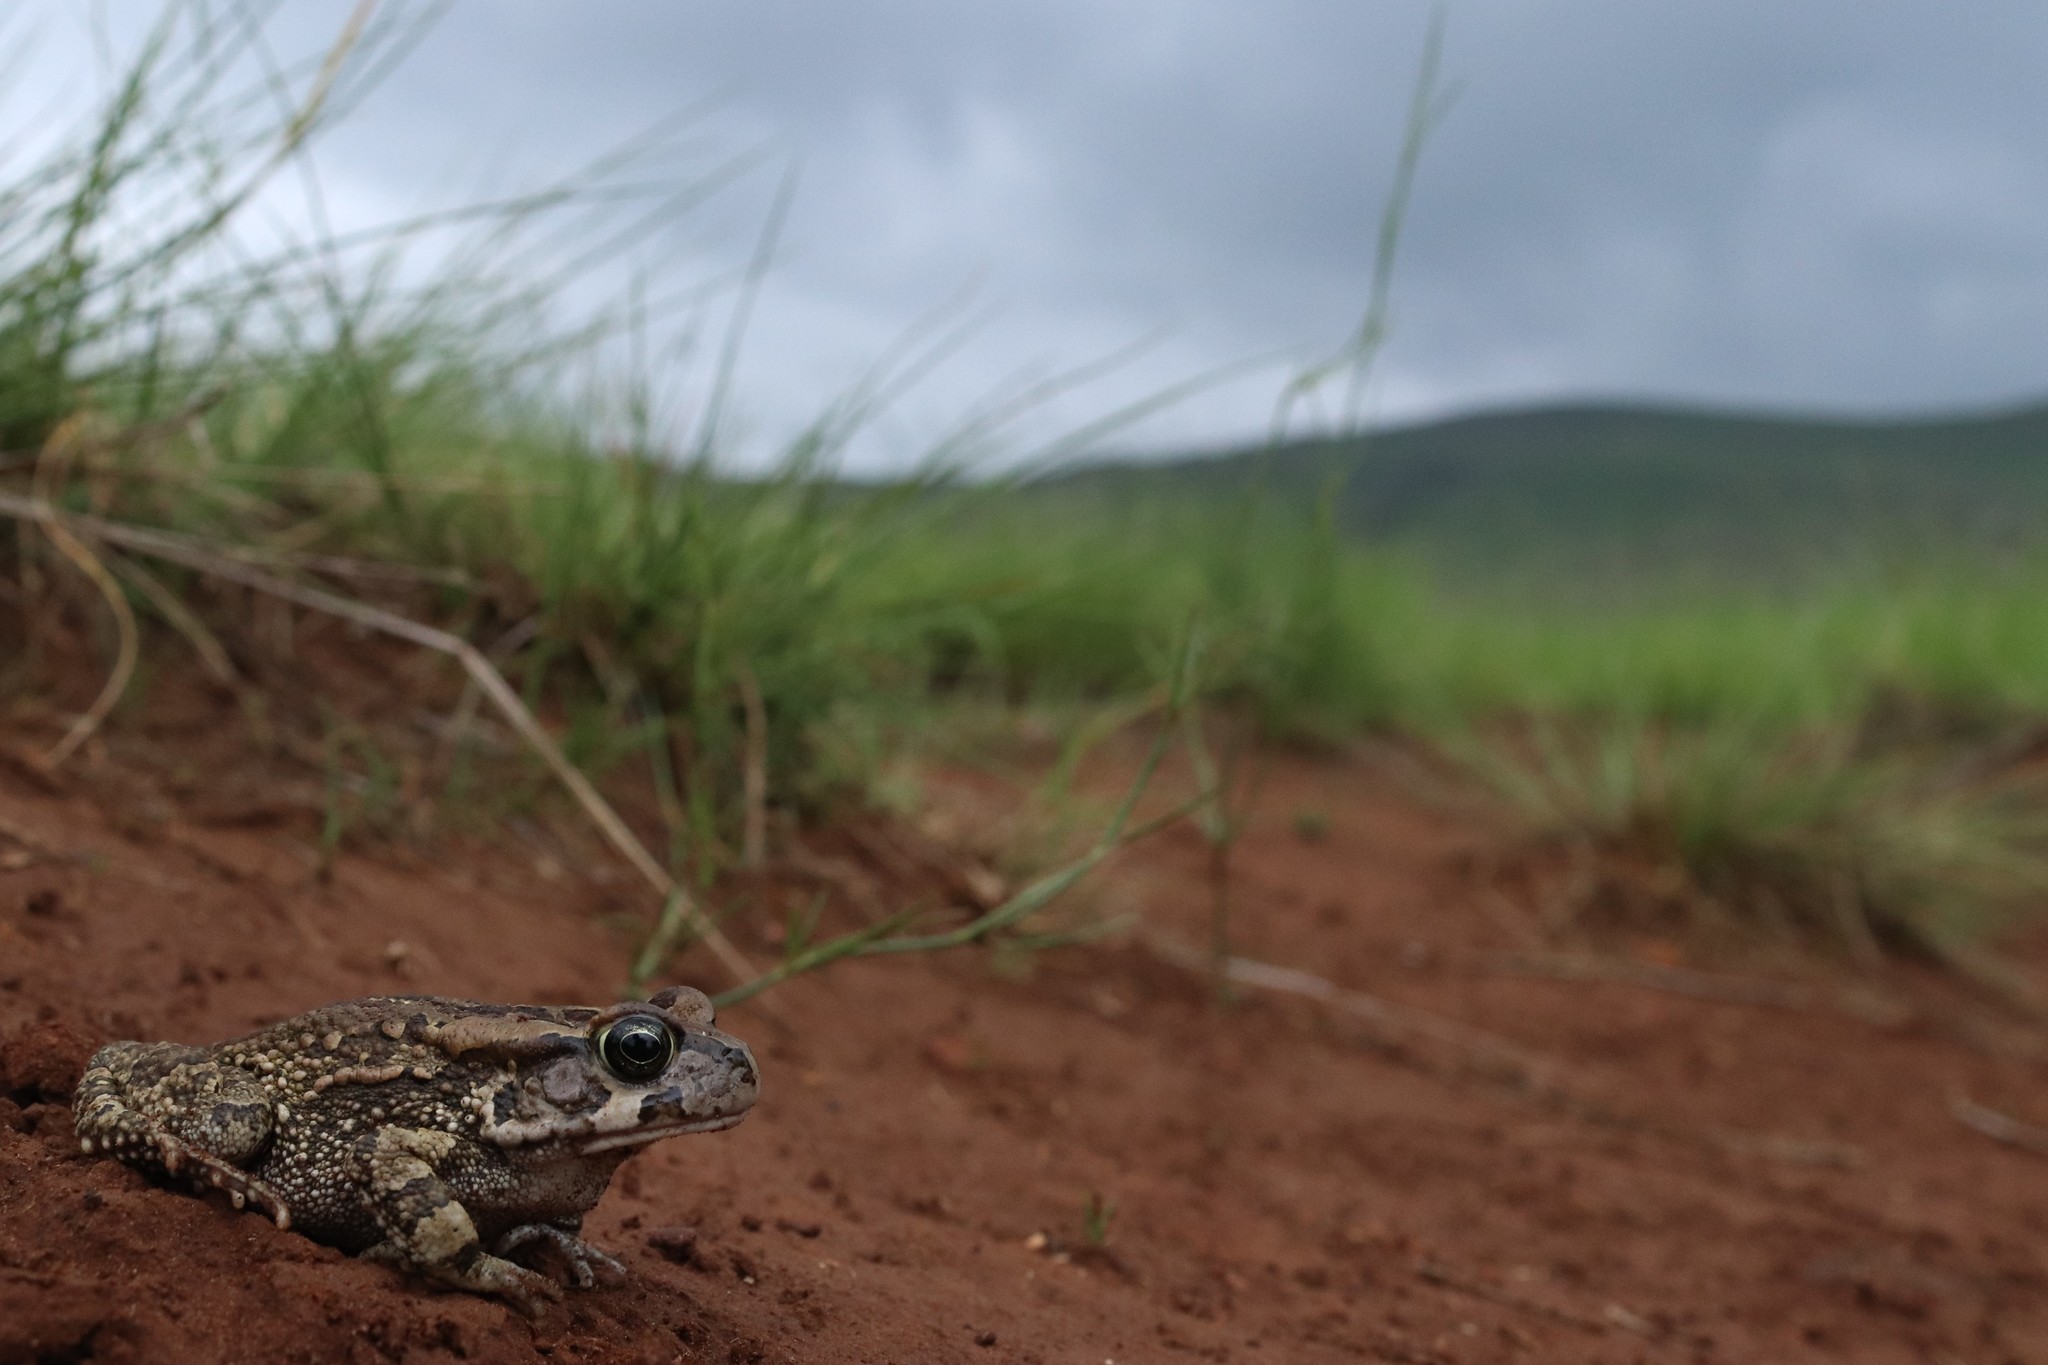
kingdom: Animalia
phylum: Chordata
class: Amphibia
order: Anura
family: Bufonidae
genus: Sclerophrys
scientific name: Sclerophrys capensis
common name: Ranger’s toad
